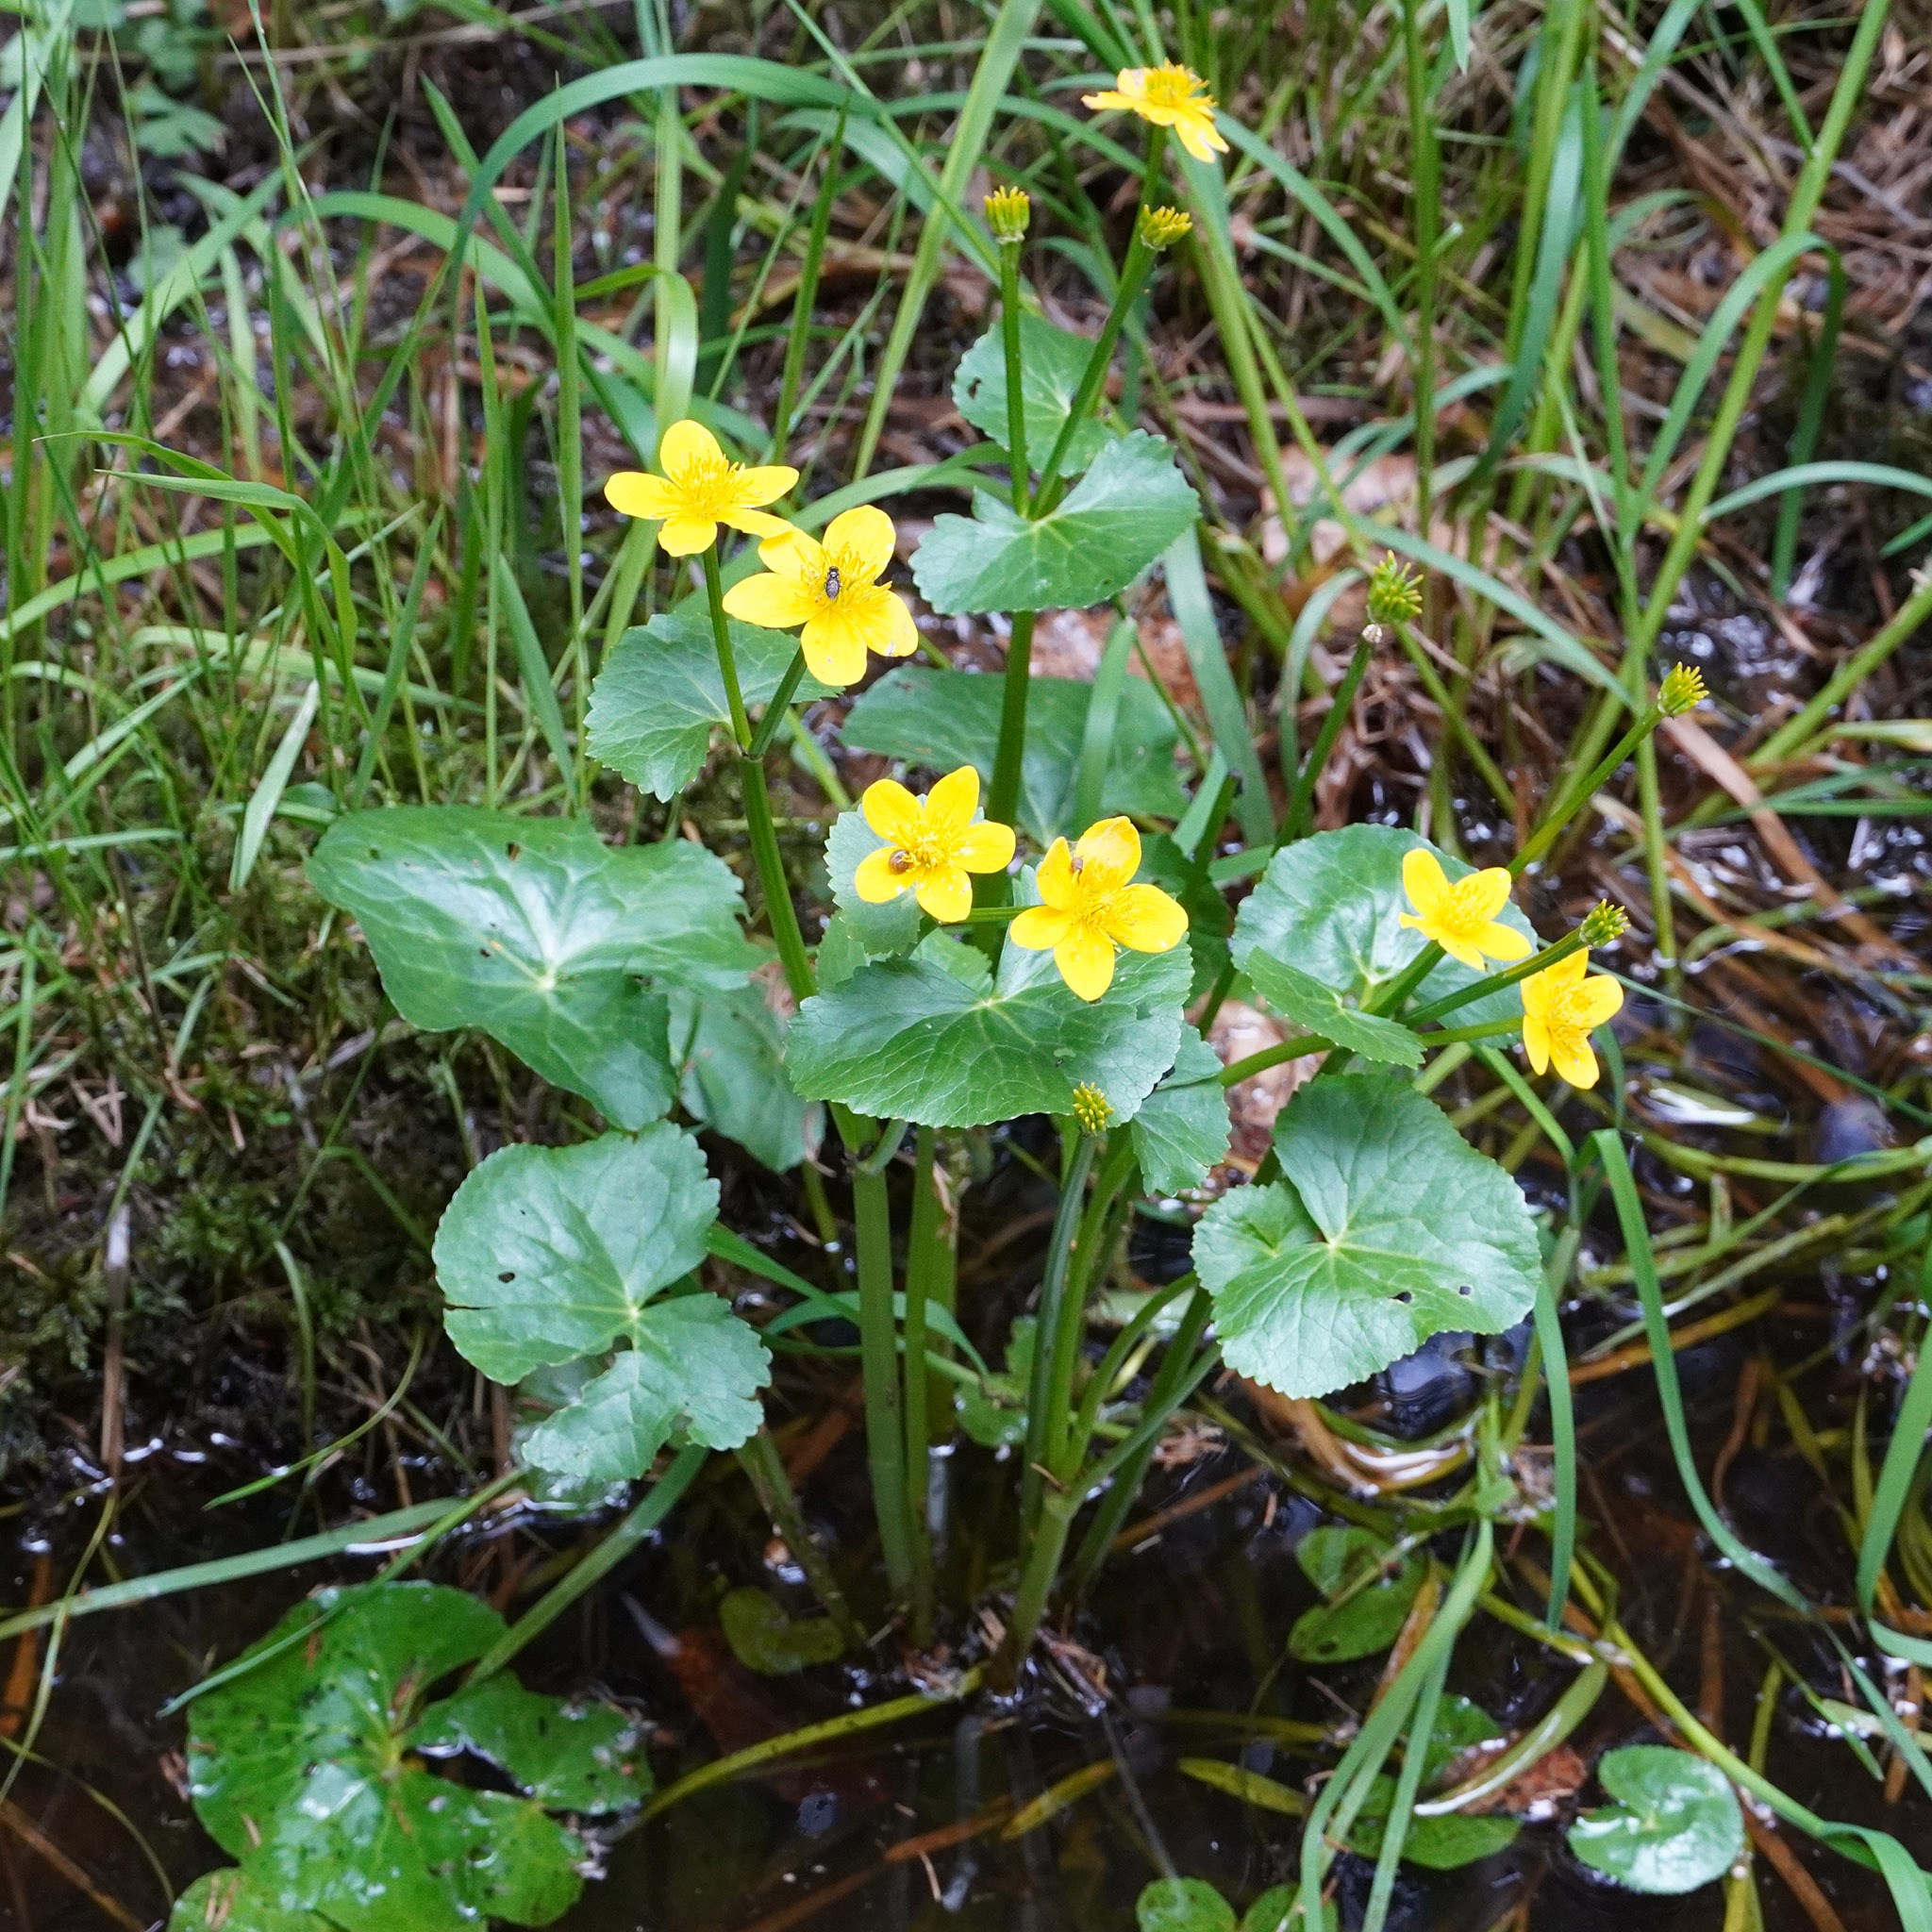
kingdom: Plantae
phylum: Tracheophyta
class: Magnoliopsida
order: Ranunculales
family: Ranunculaceae
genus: Caltha
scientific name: Caltha palustris
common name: Marsh marigold
